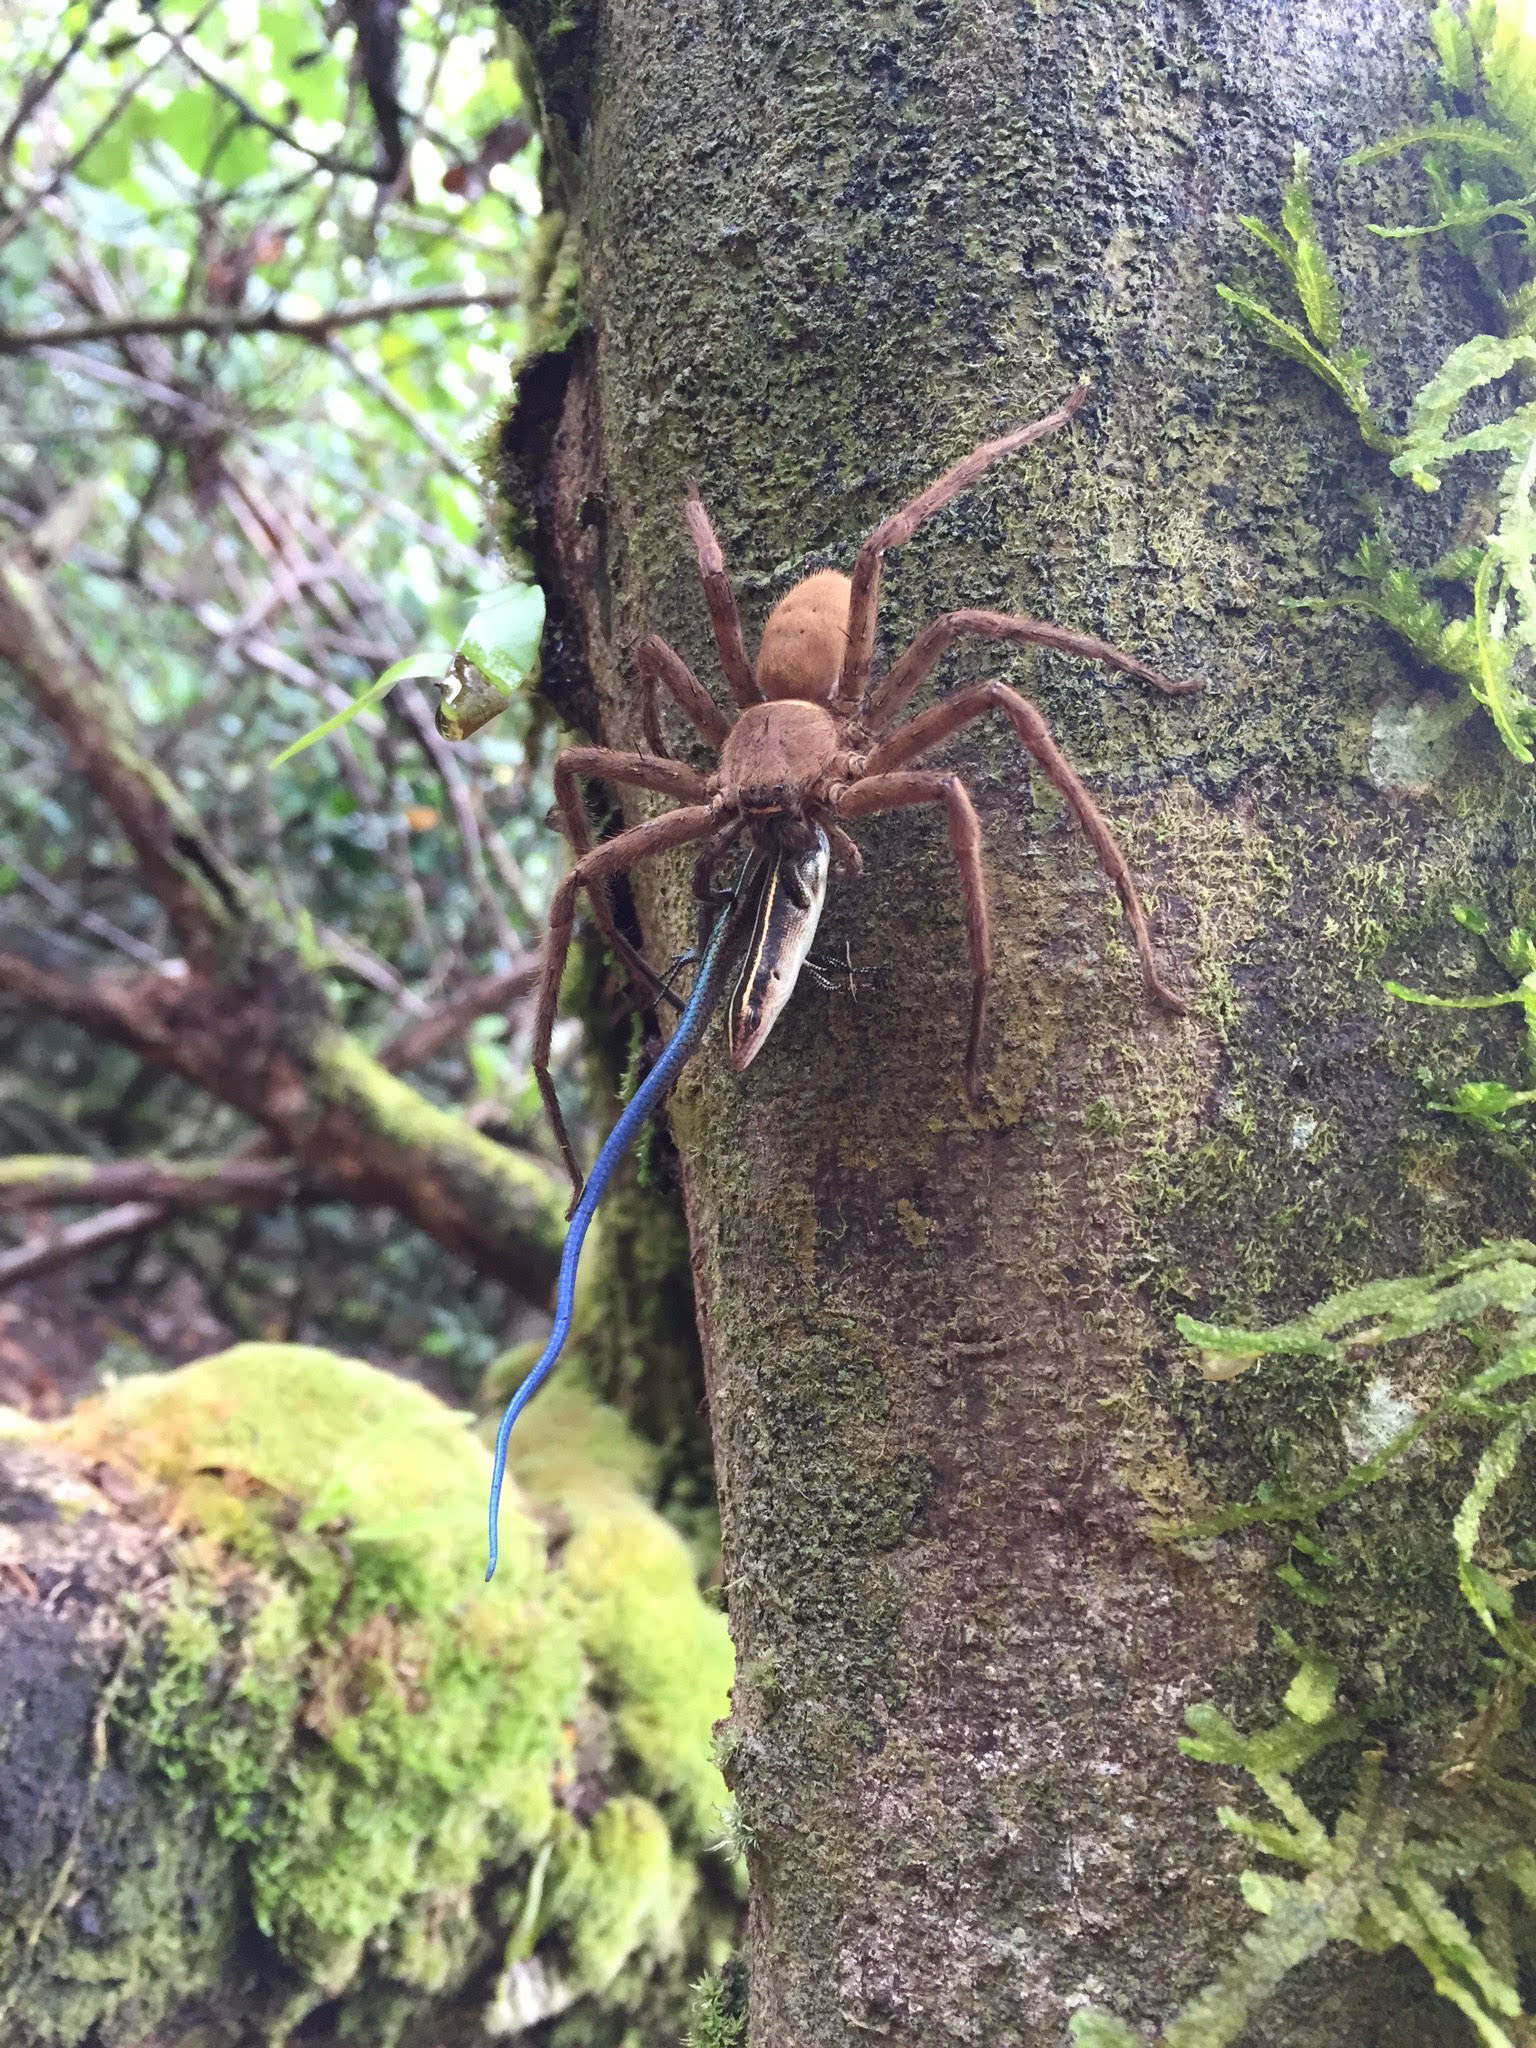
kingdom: Animalia
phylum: Arthropoda
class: Arachnida
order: Araneae
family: Sparassidae
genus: Heteropoda
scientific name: Heteropoda venatoria
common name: Huntsman spider
